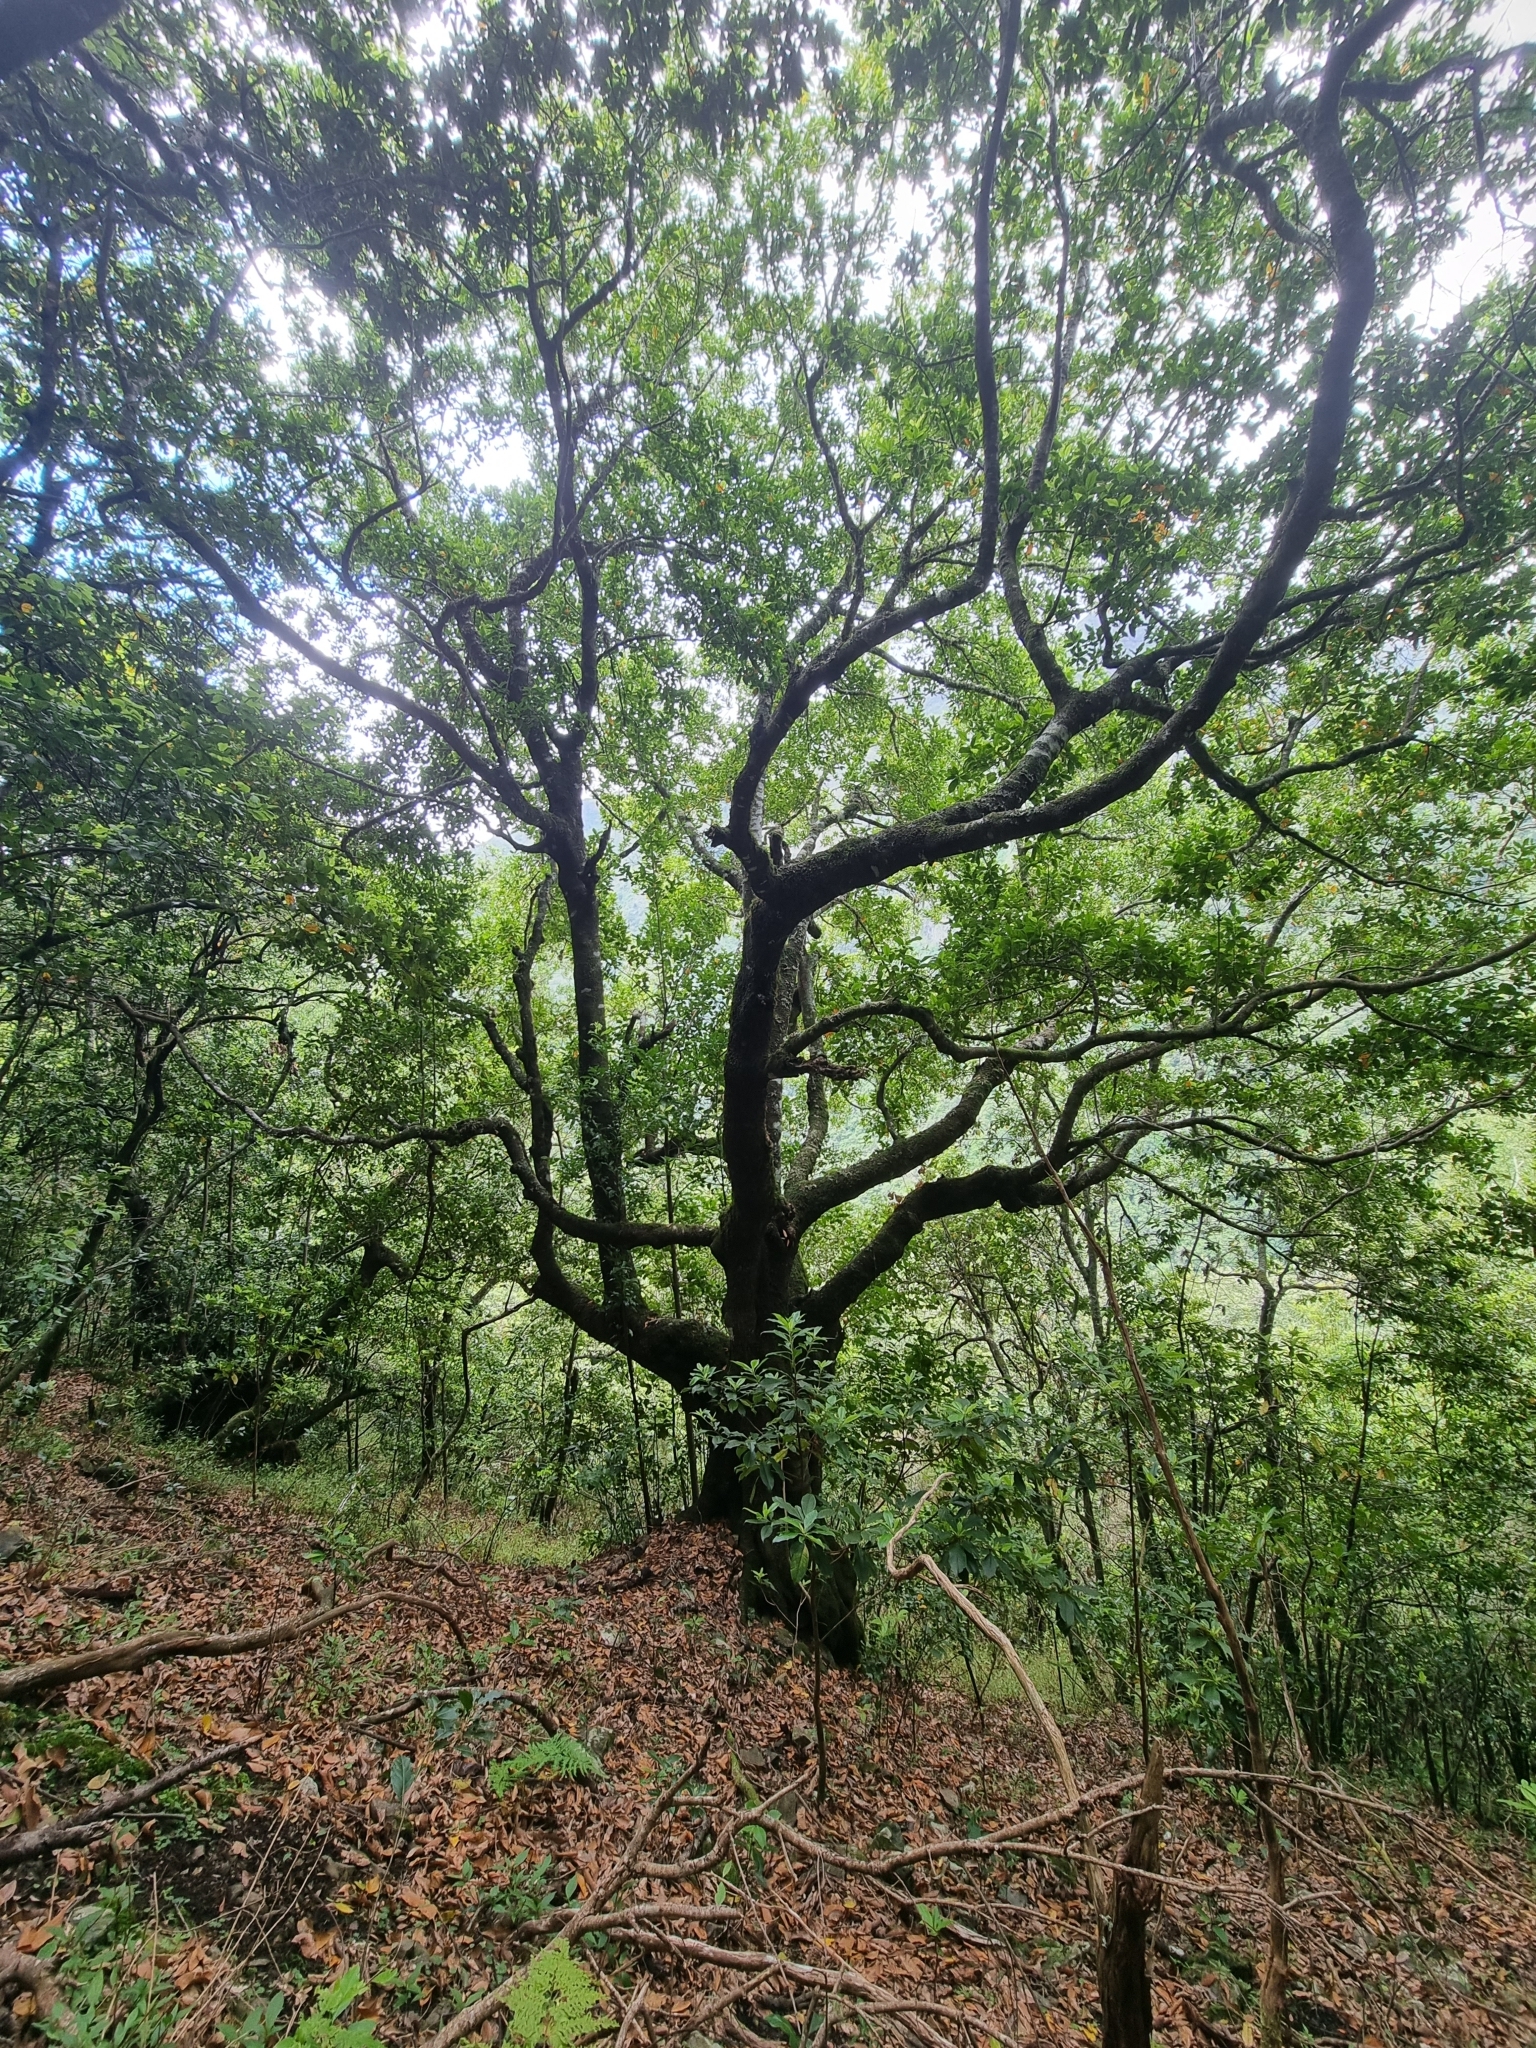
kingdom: Plantae
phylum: Tracheophyta
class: Magnoliopsida
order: Laurales
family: Lauraceae
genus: Mespilodaphne
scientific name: Mespilodaphne foetens
